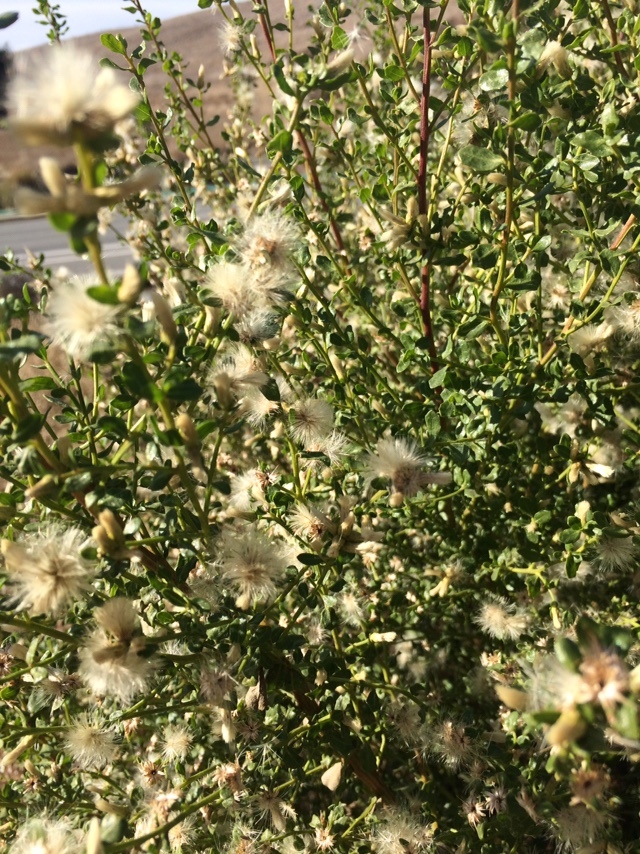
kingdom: Plantae
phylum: Tracheophyta
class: Magnoliopsida
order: Asterales
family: Asteraceae
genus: Baccharis
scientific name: Baccharis pilularis
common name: Coyotebrush
